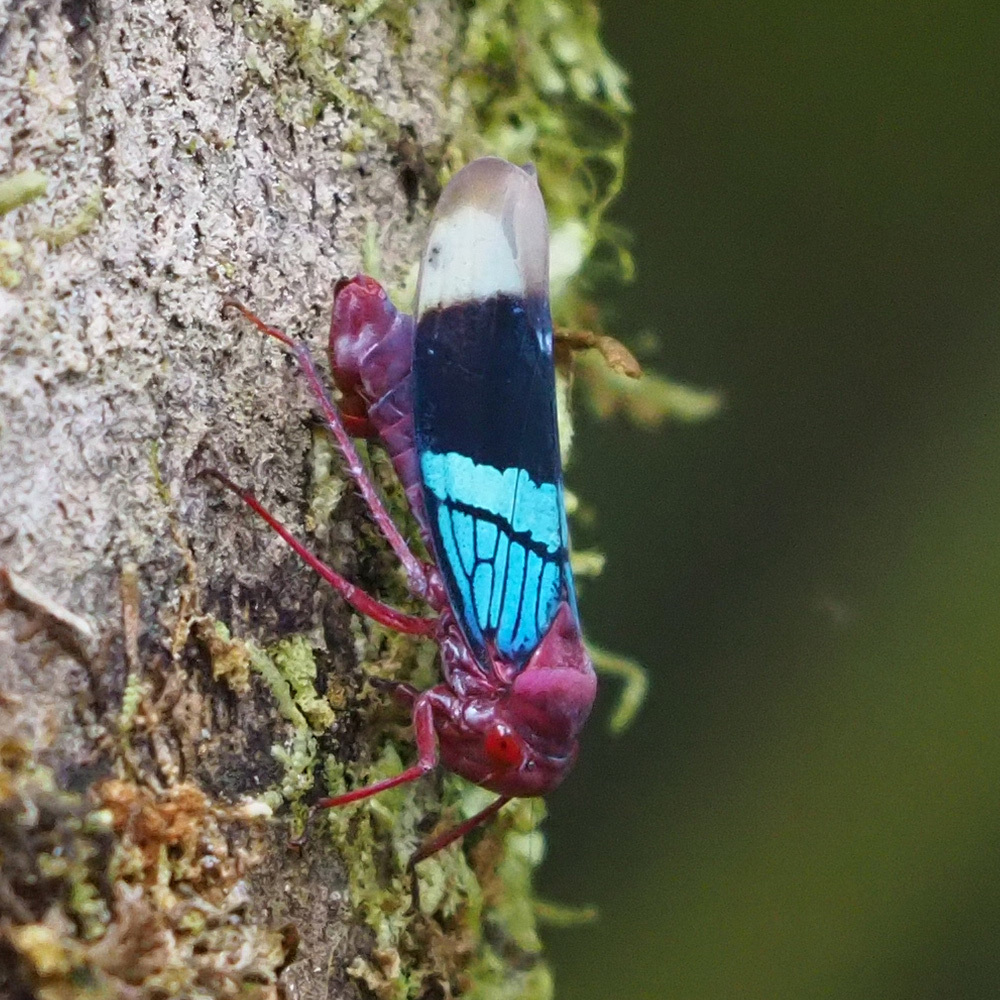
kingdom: Animalia
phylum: Arthropoda
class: Insecta
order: Hemiptera
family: Cicadellidae
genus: Amblyscarta
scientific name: Amblyscarta opulenta
